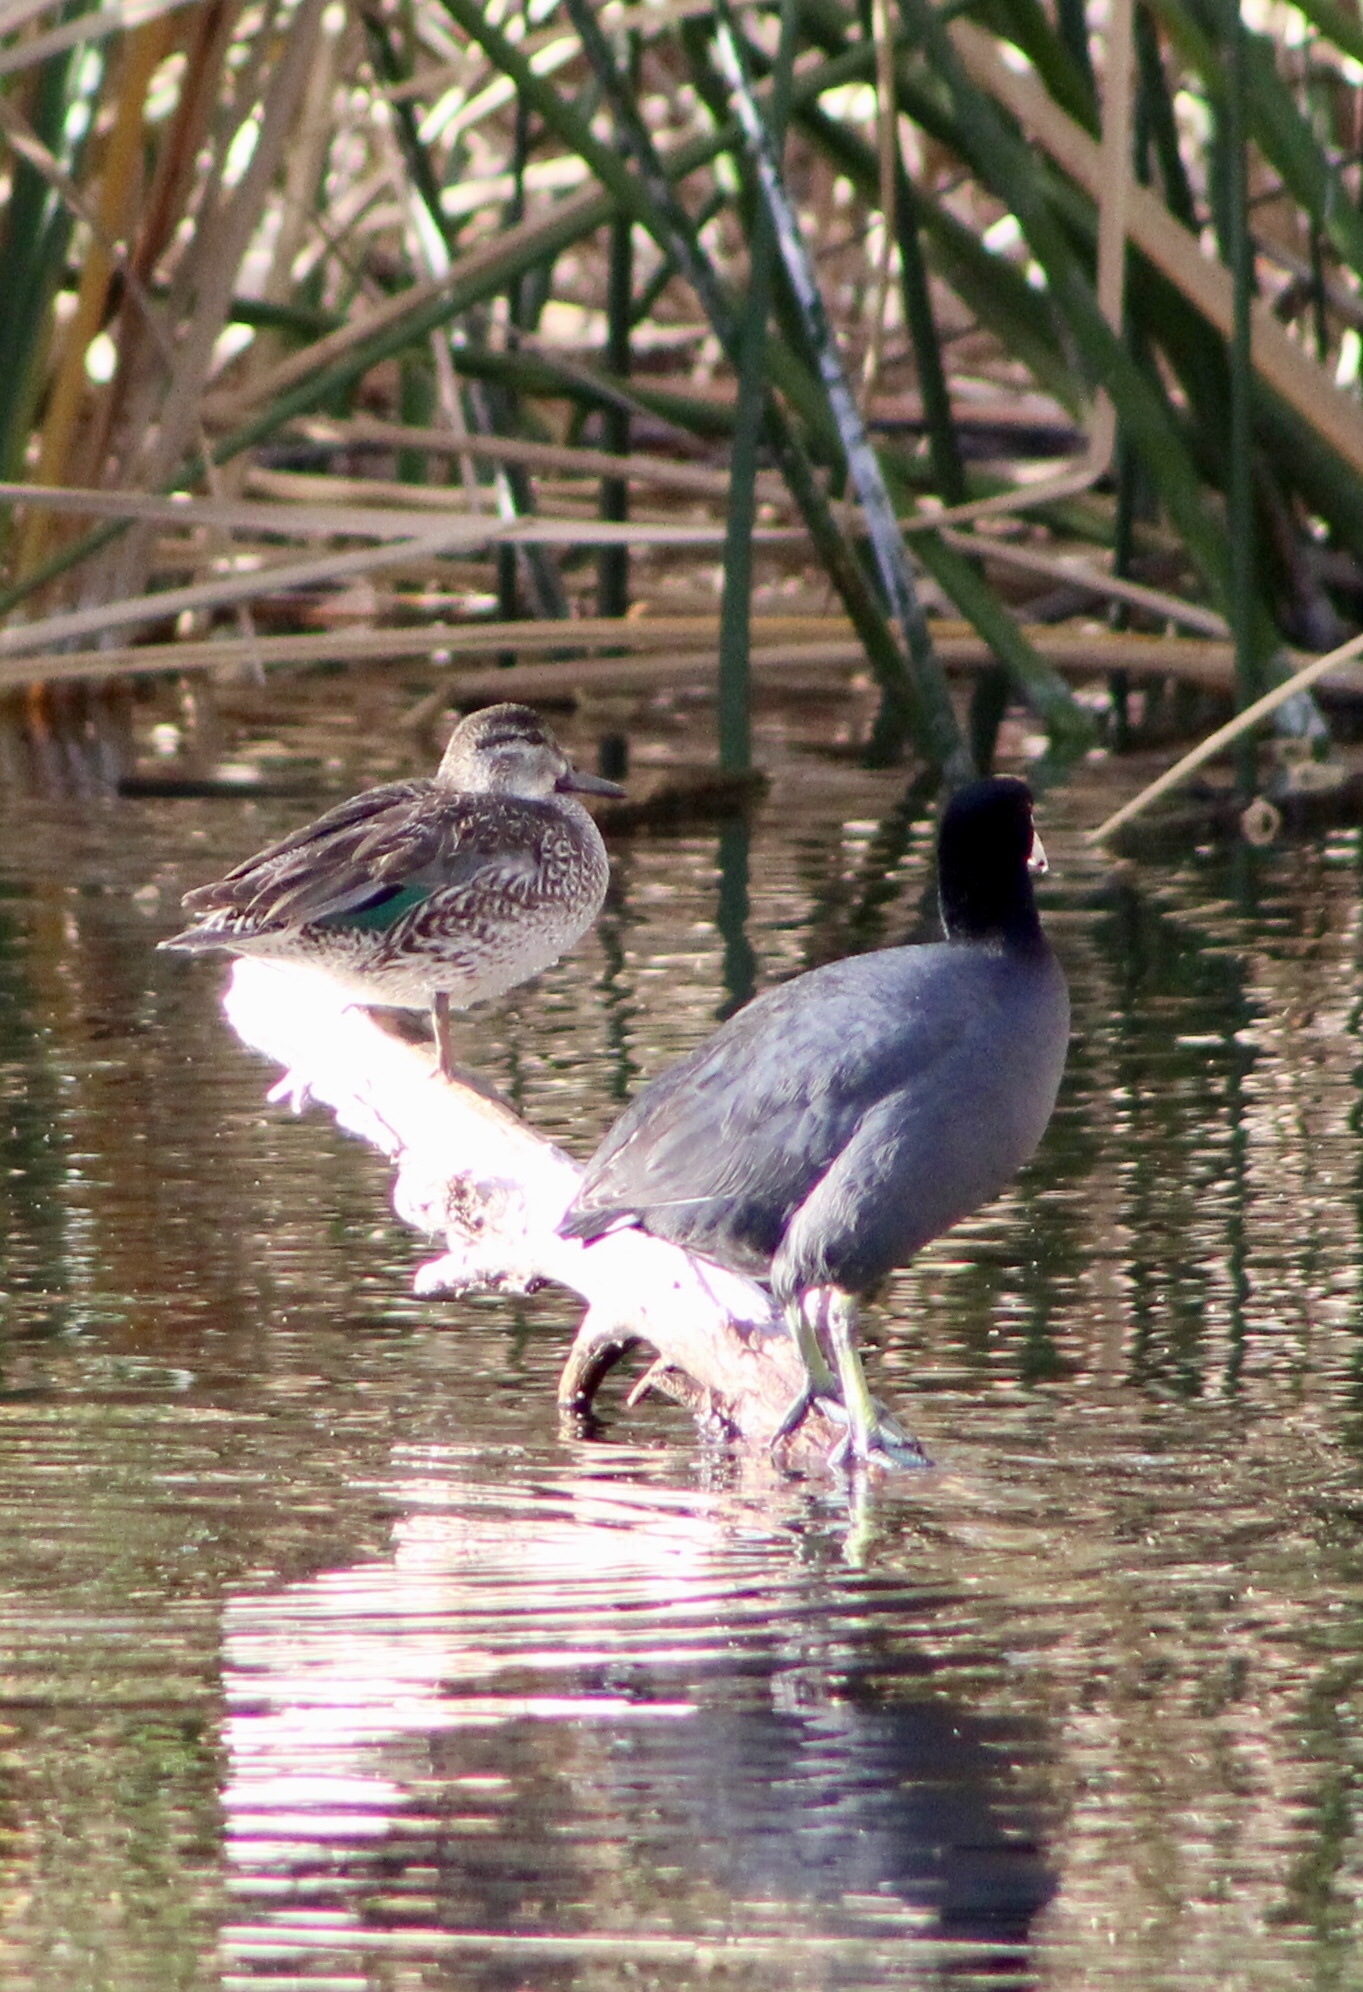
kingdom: Animalia
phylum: Chordata
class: Aves
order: Gruiformes
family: Rallidae
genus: Fulica
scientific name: Fulica americana
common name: American coot
